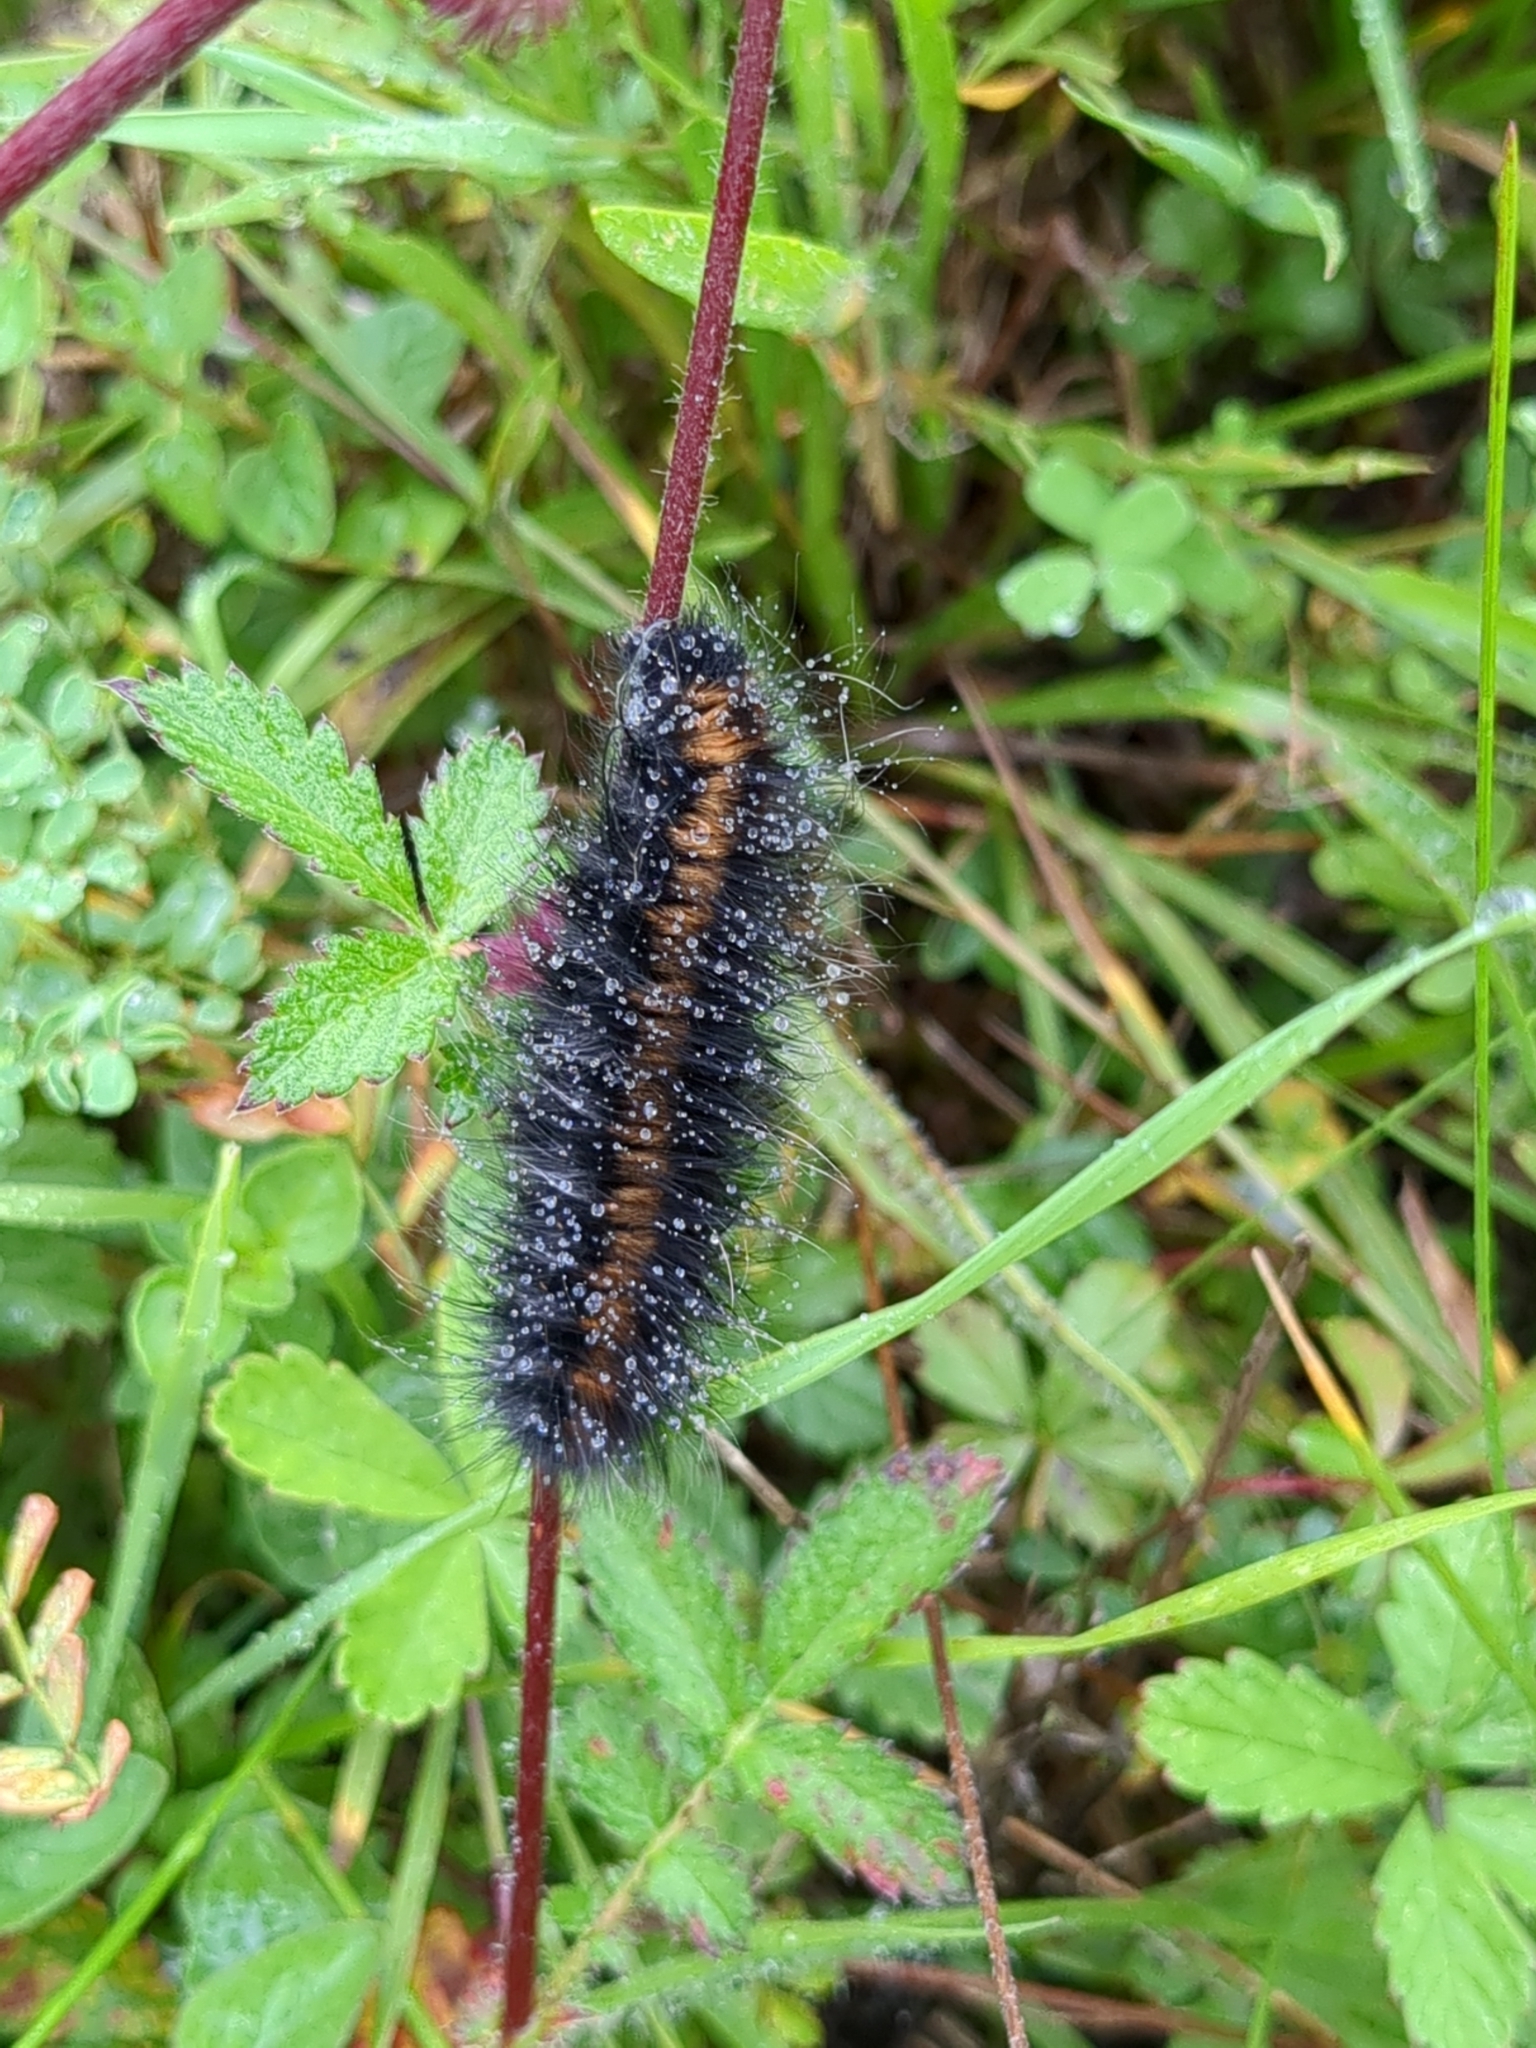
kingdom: Animalia
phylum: Arthropoda
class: Insecta
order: Lepidoptera
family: Lasiocampidae
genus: Macrothylacia
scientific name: Macrothylacia rubi
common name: Fox moth
